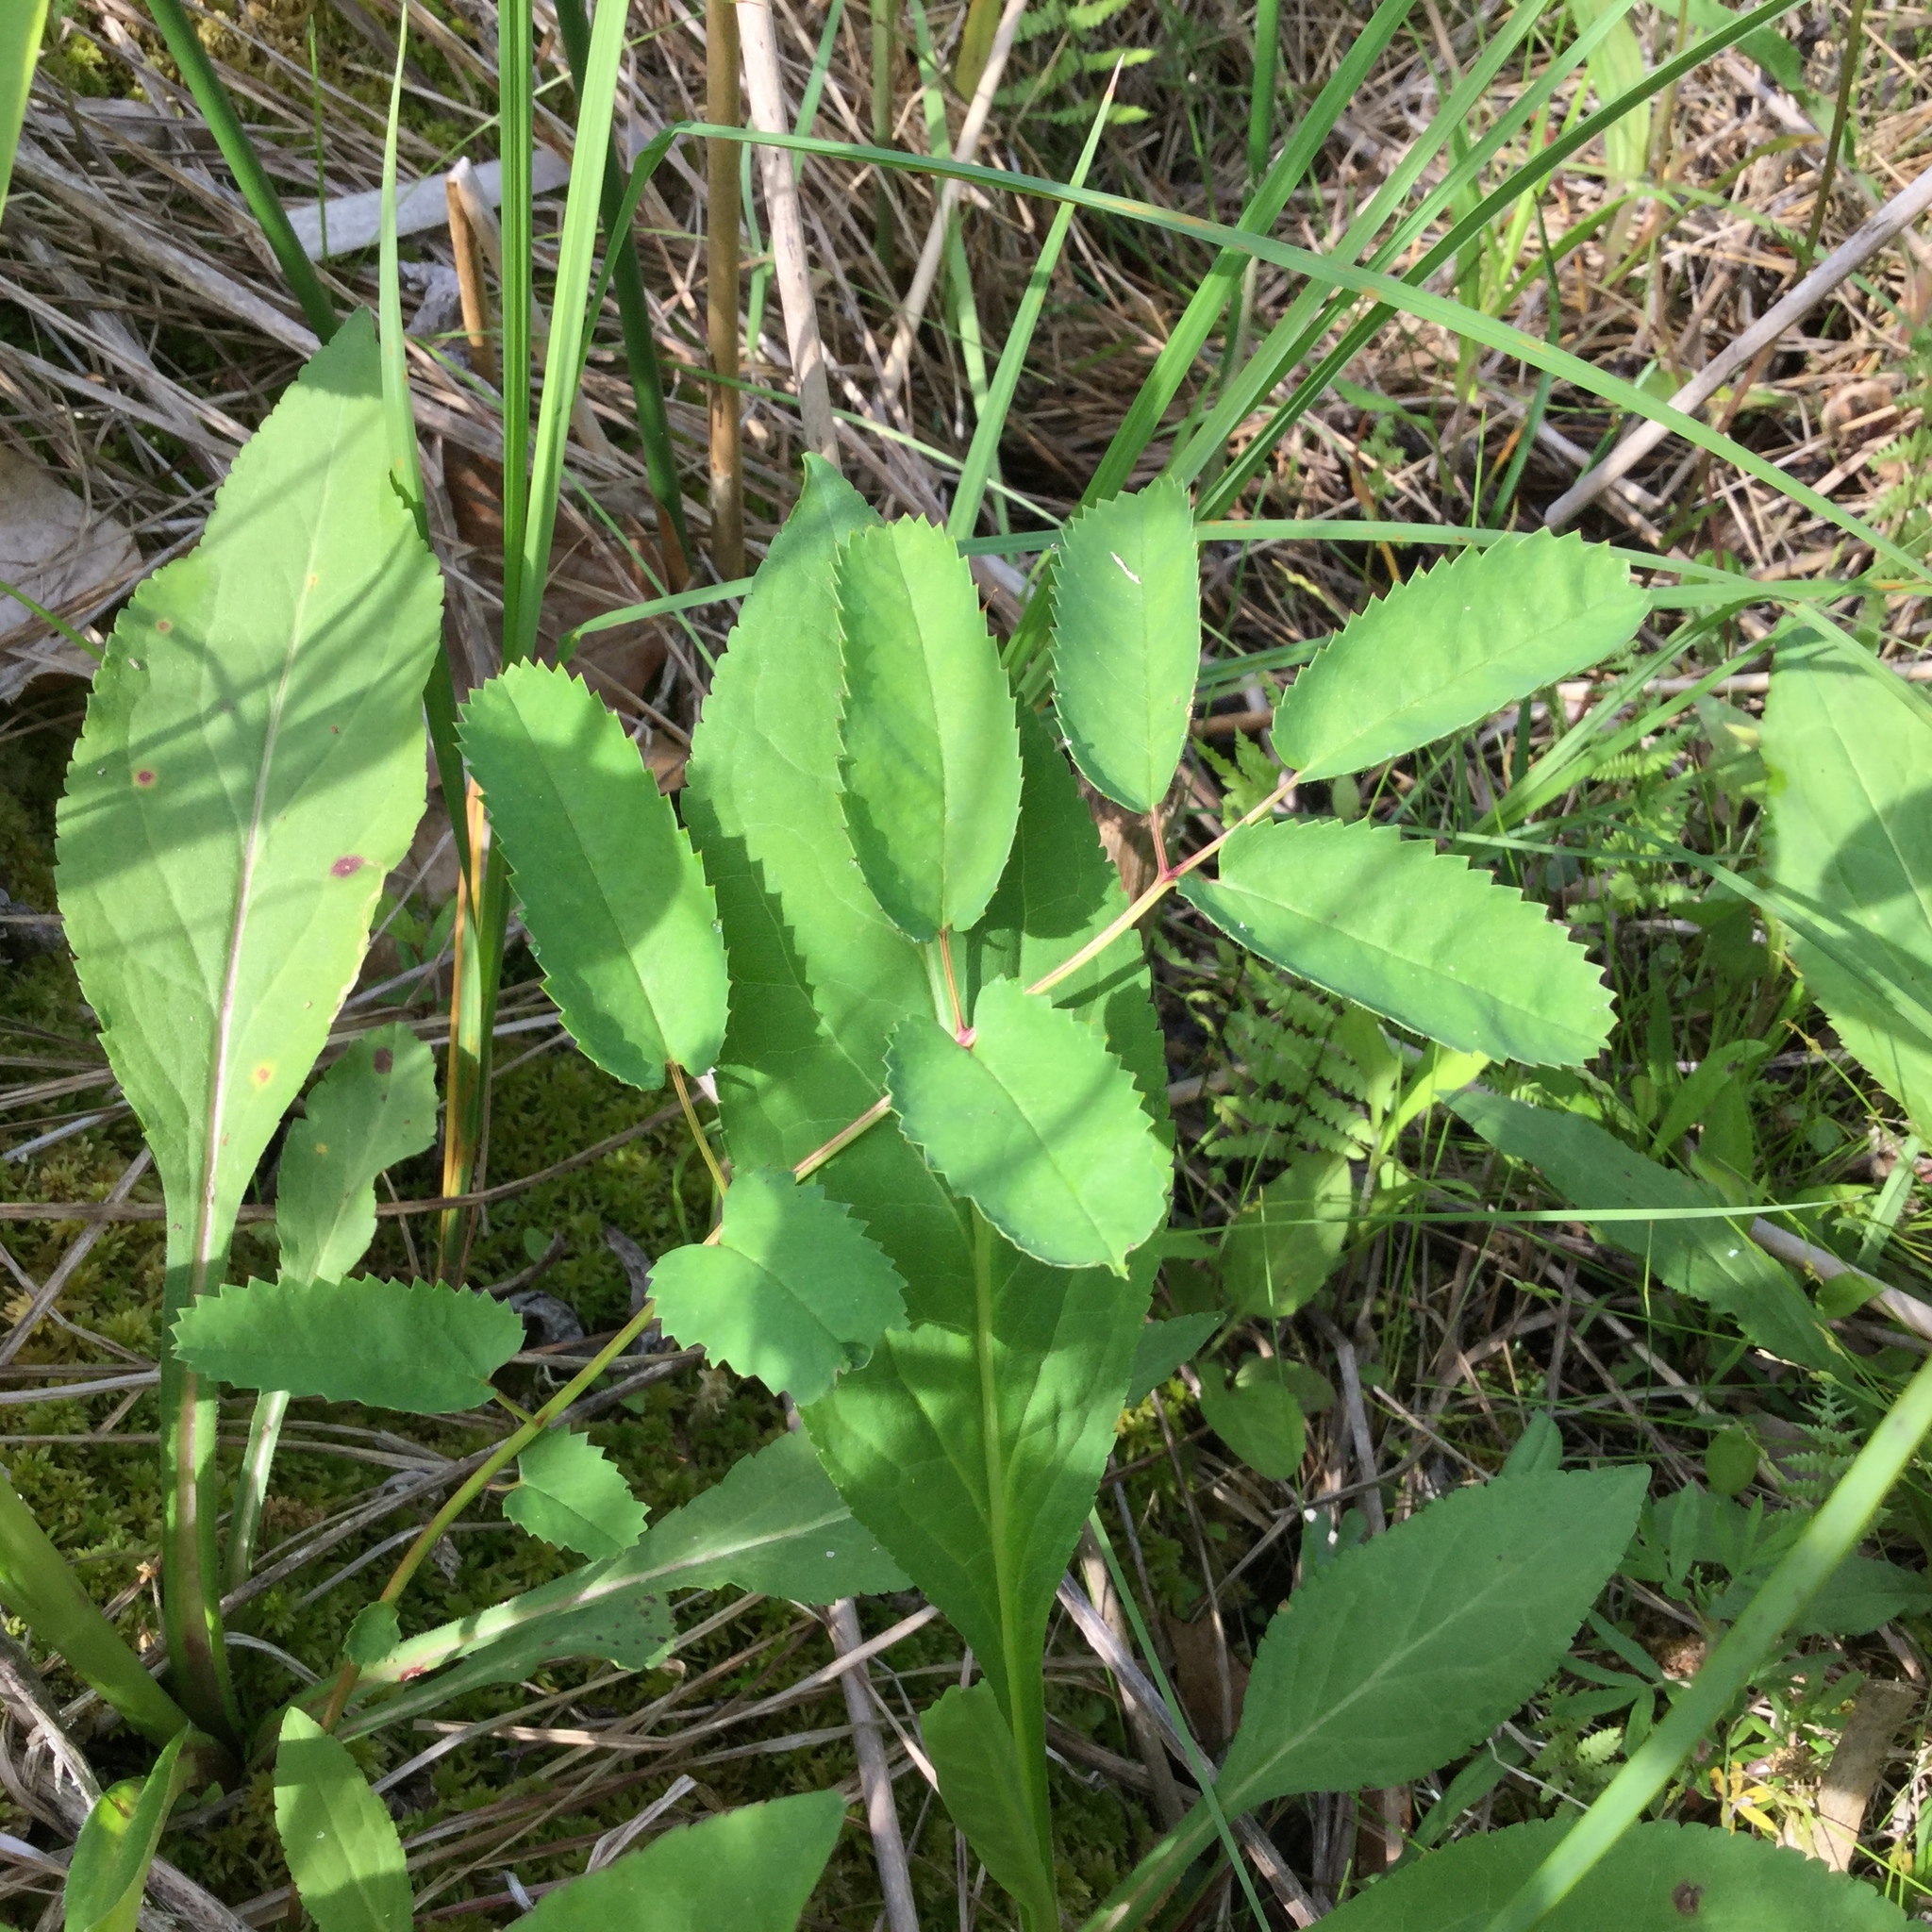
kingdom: Plantae
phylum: Tracheophyta
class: Magnoliopsida
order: Rosales
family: Rosaceae
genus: Sanguisorba
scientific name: Sanguisorba canadensis
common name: White burnet
